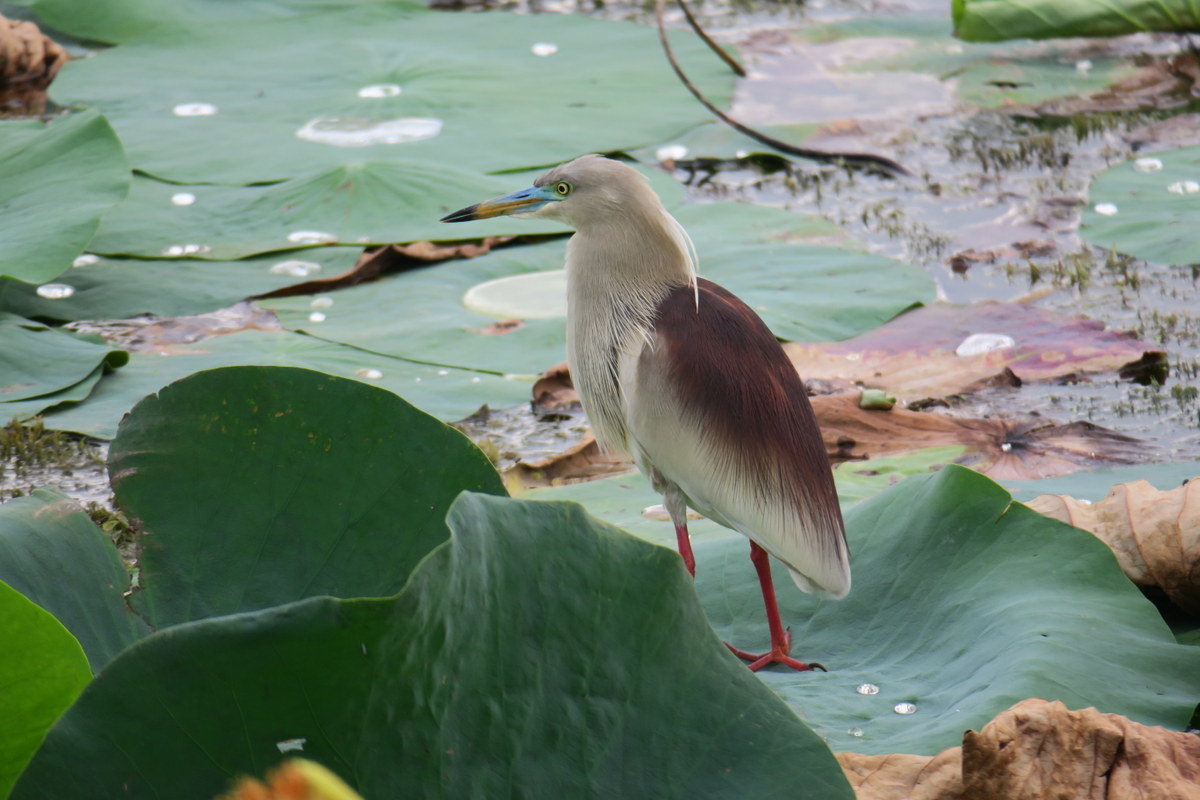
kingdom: Animalia
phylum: Chordata
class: Aves
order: Pelecaniformes
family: Ardeidae
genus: Ardeola
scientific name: Ardeola grayii
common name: Indian pond heron
